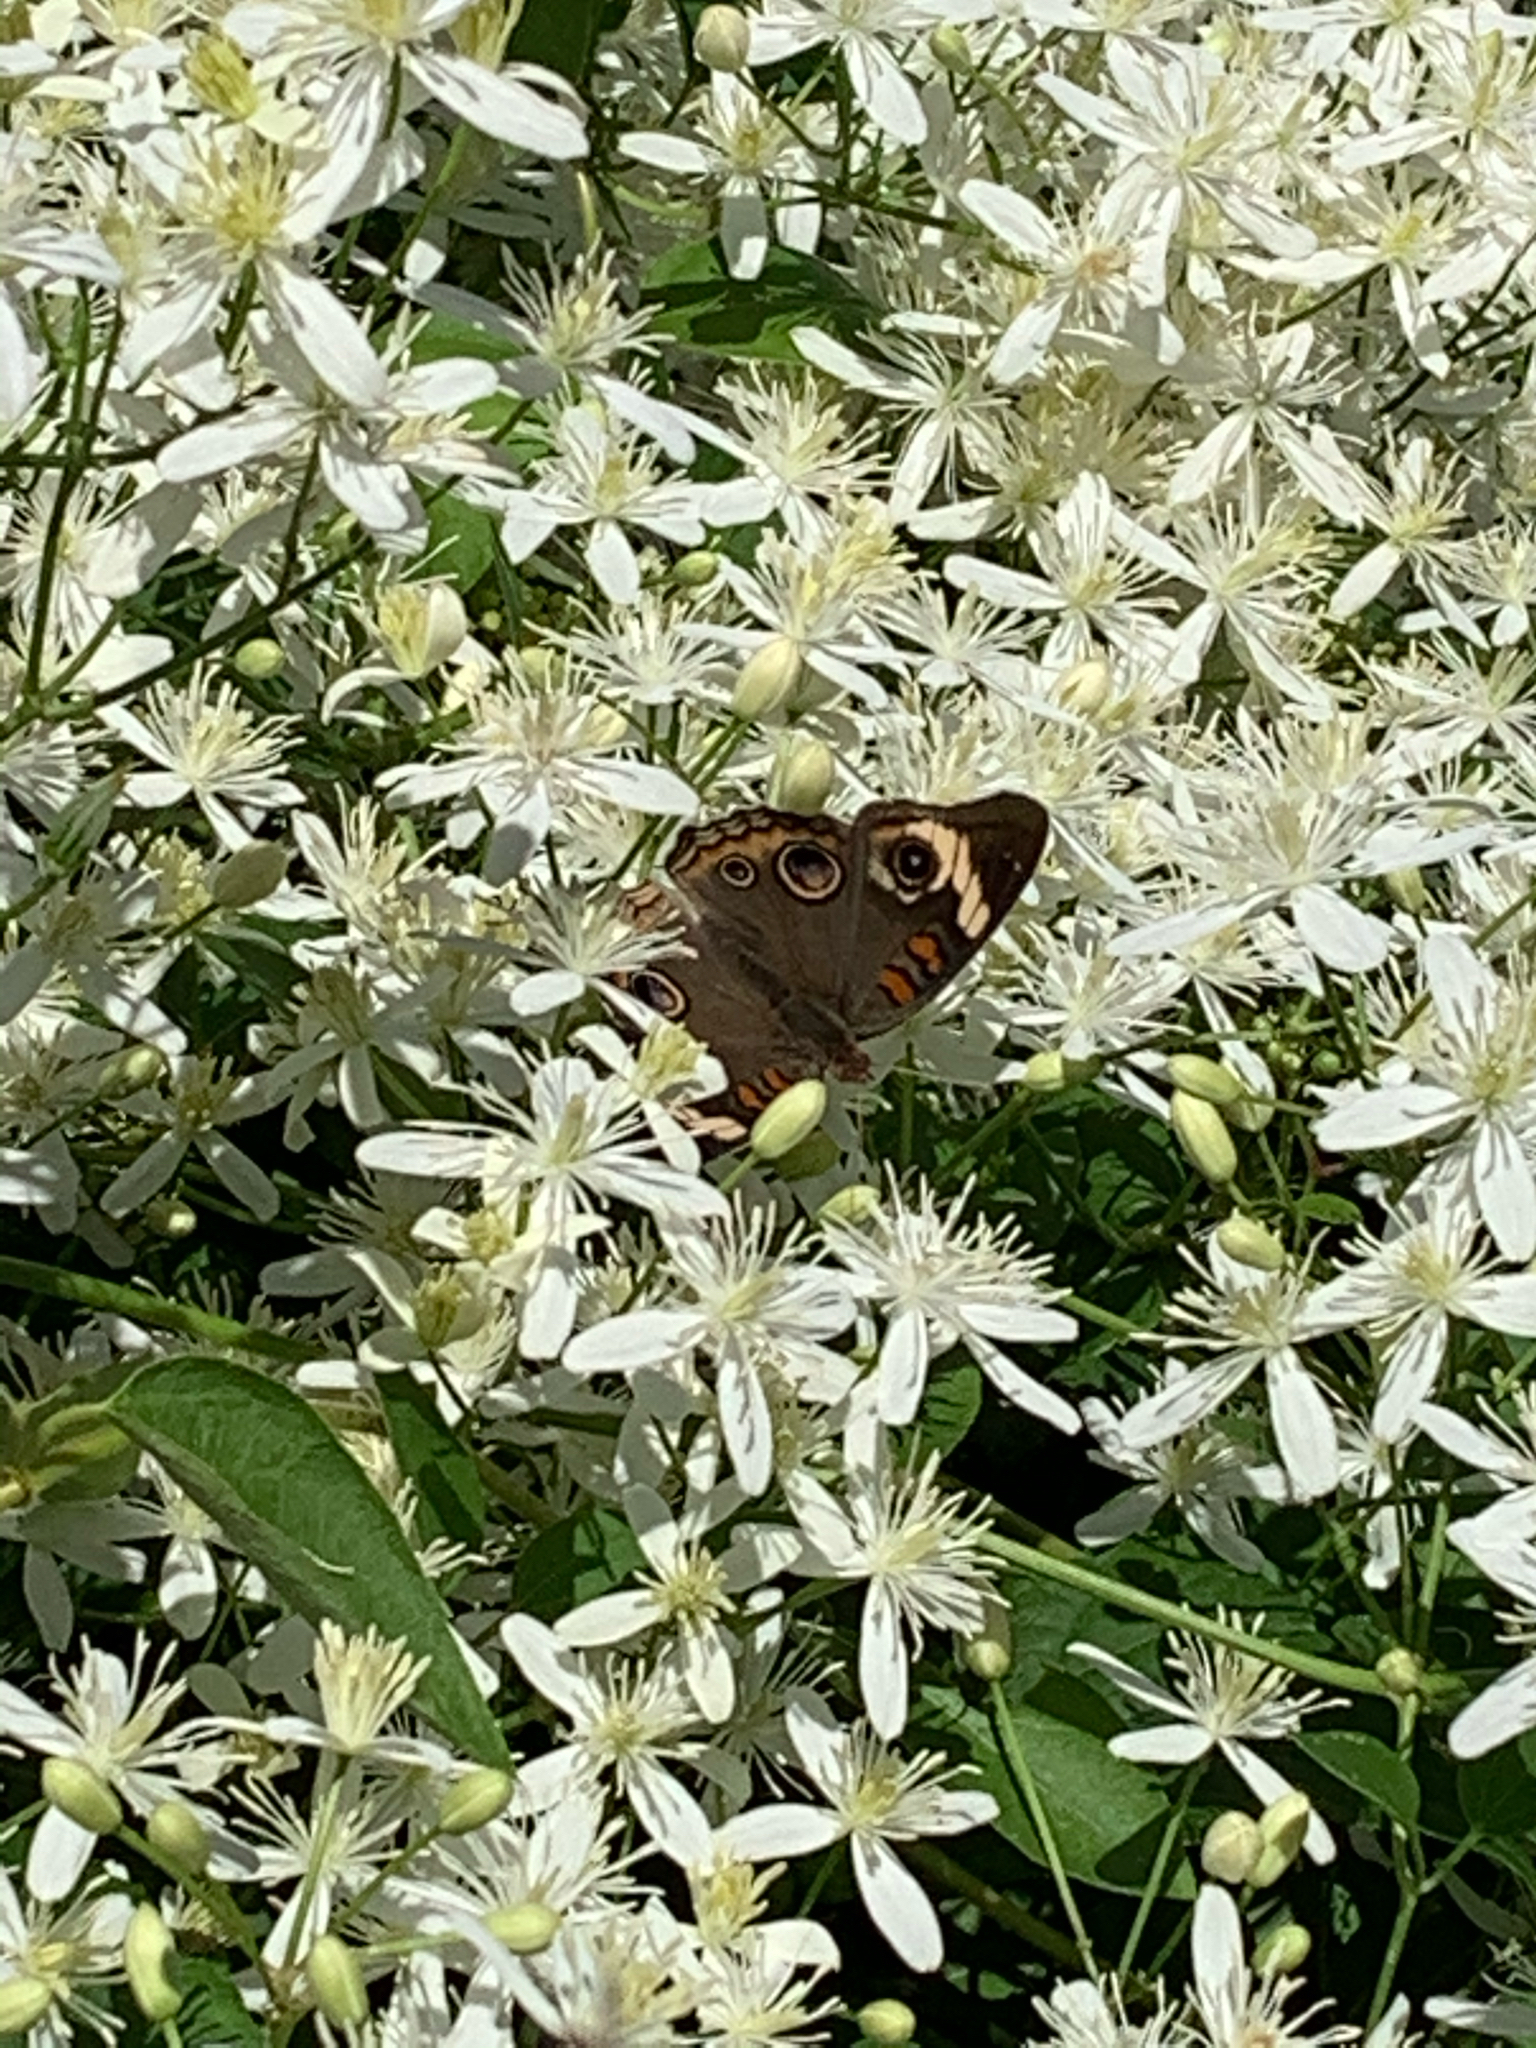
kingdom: Animalia
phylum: Arthropoda
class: Insecta
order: Lepidoptera
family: Nymphalidae
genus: Junonia
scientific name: Junonia coenia
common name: Common buckeye
